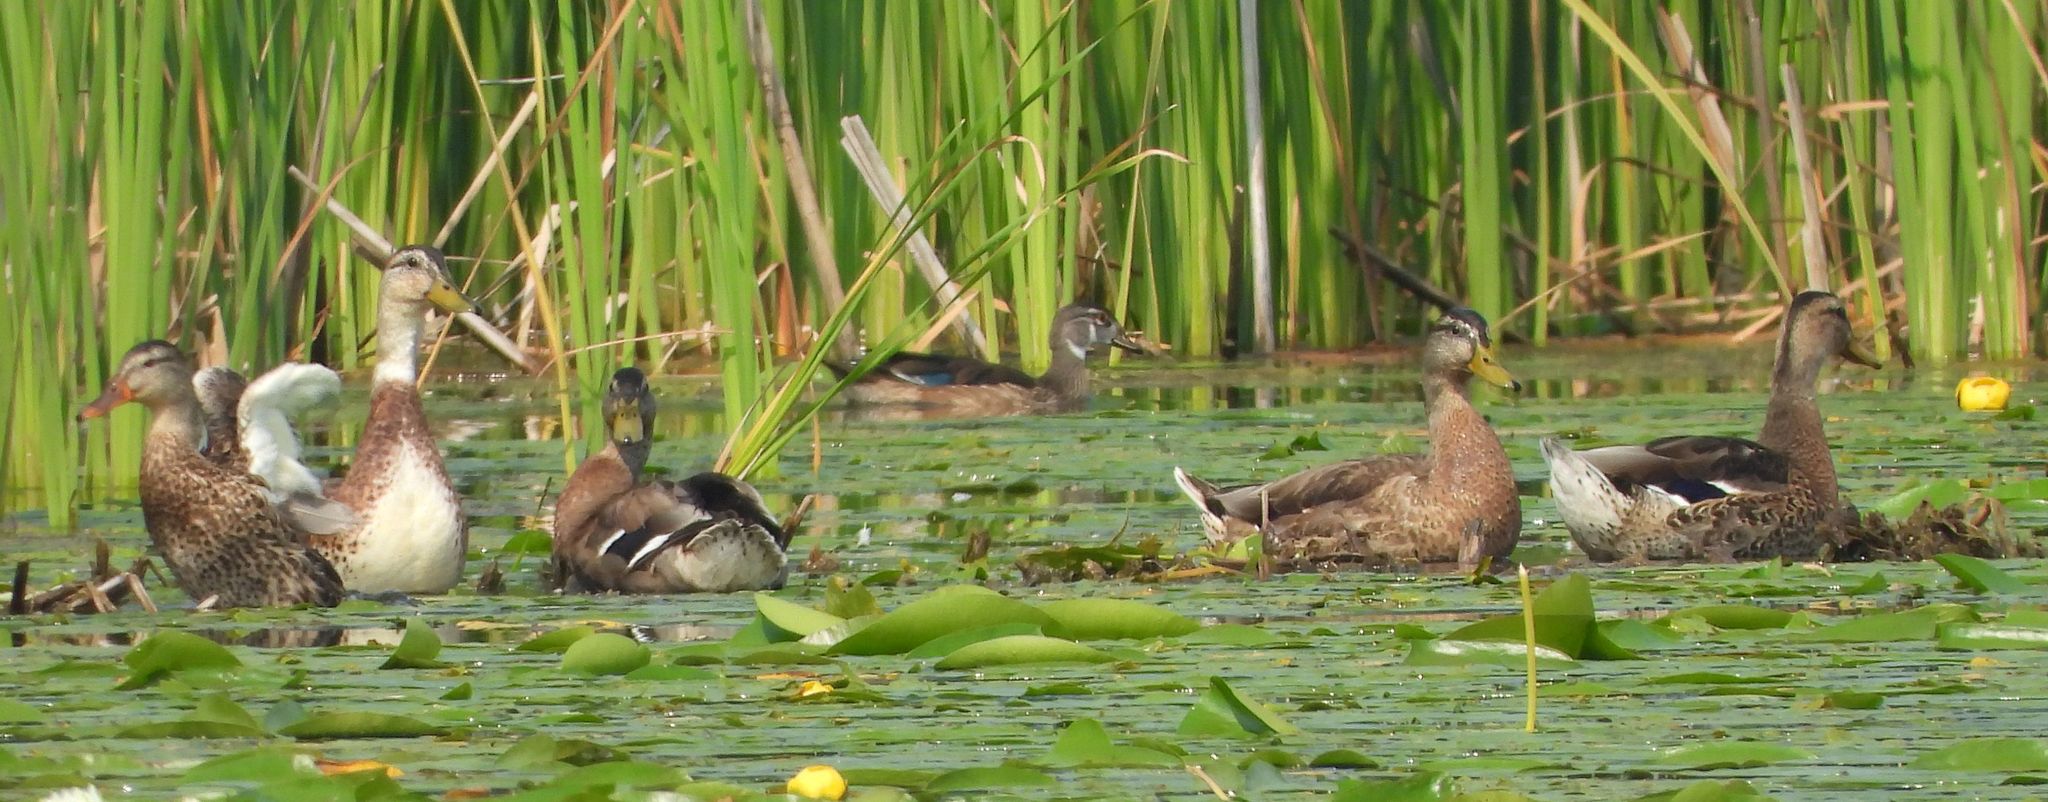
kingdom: Animalia
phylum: Chordata
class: Aves
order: Anseriformes
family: Anatidae
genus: Anas
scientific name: Anas platyrhynchos
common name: Mallard
